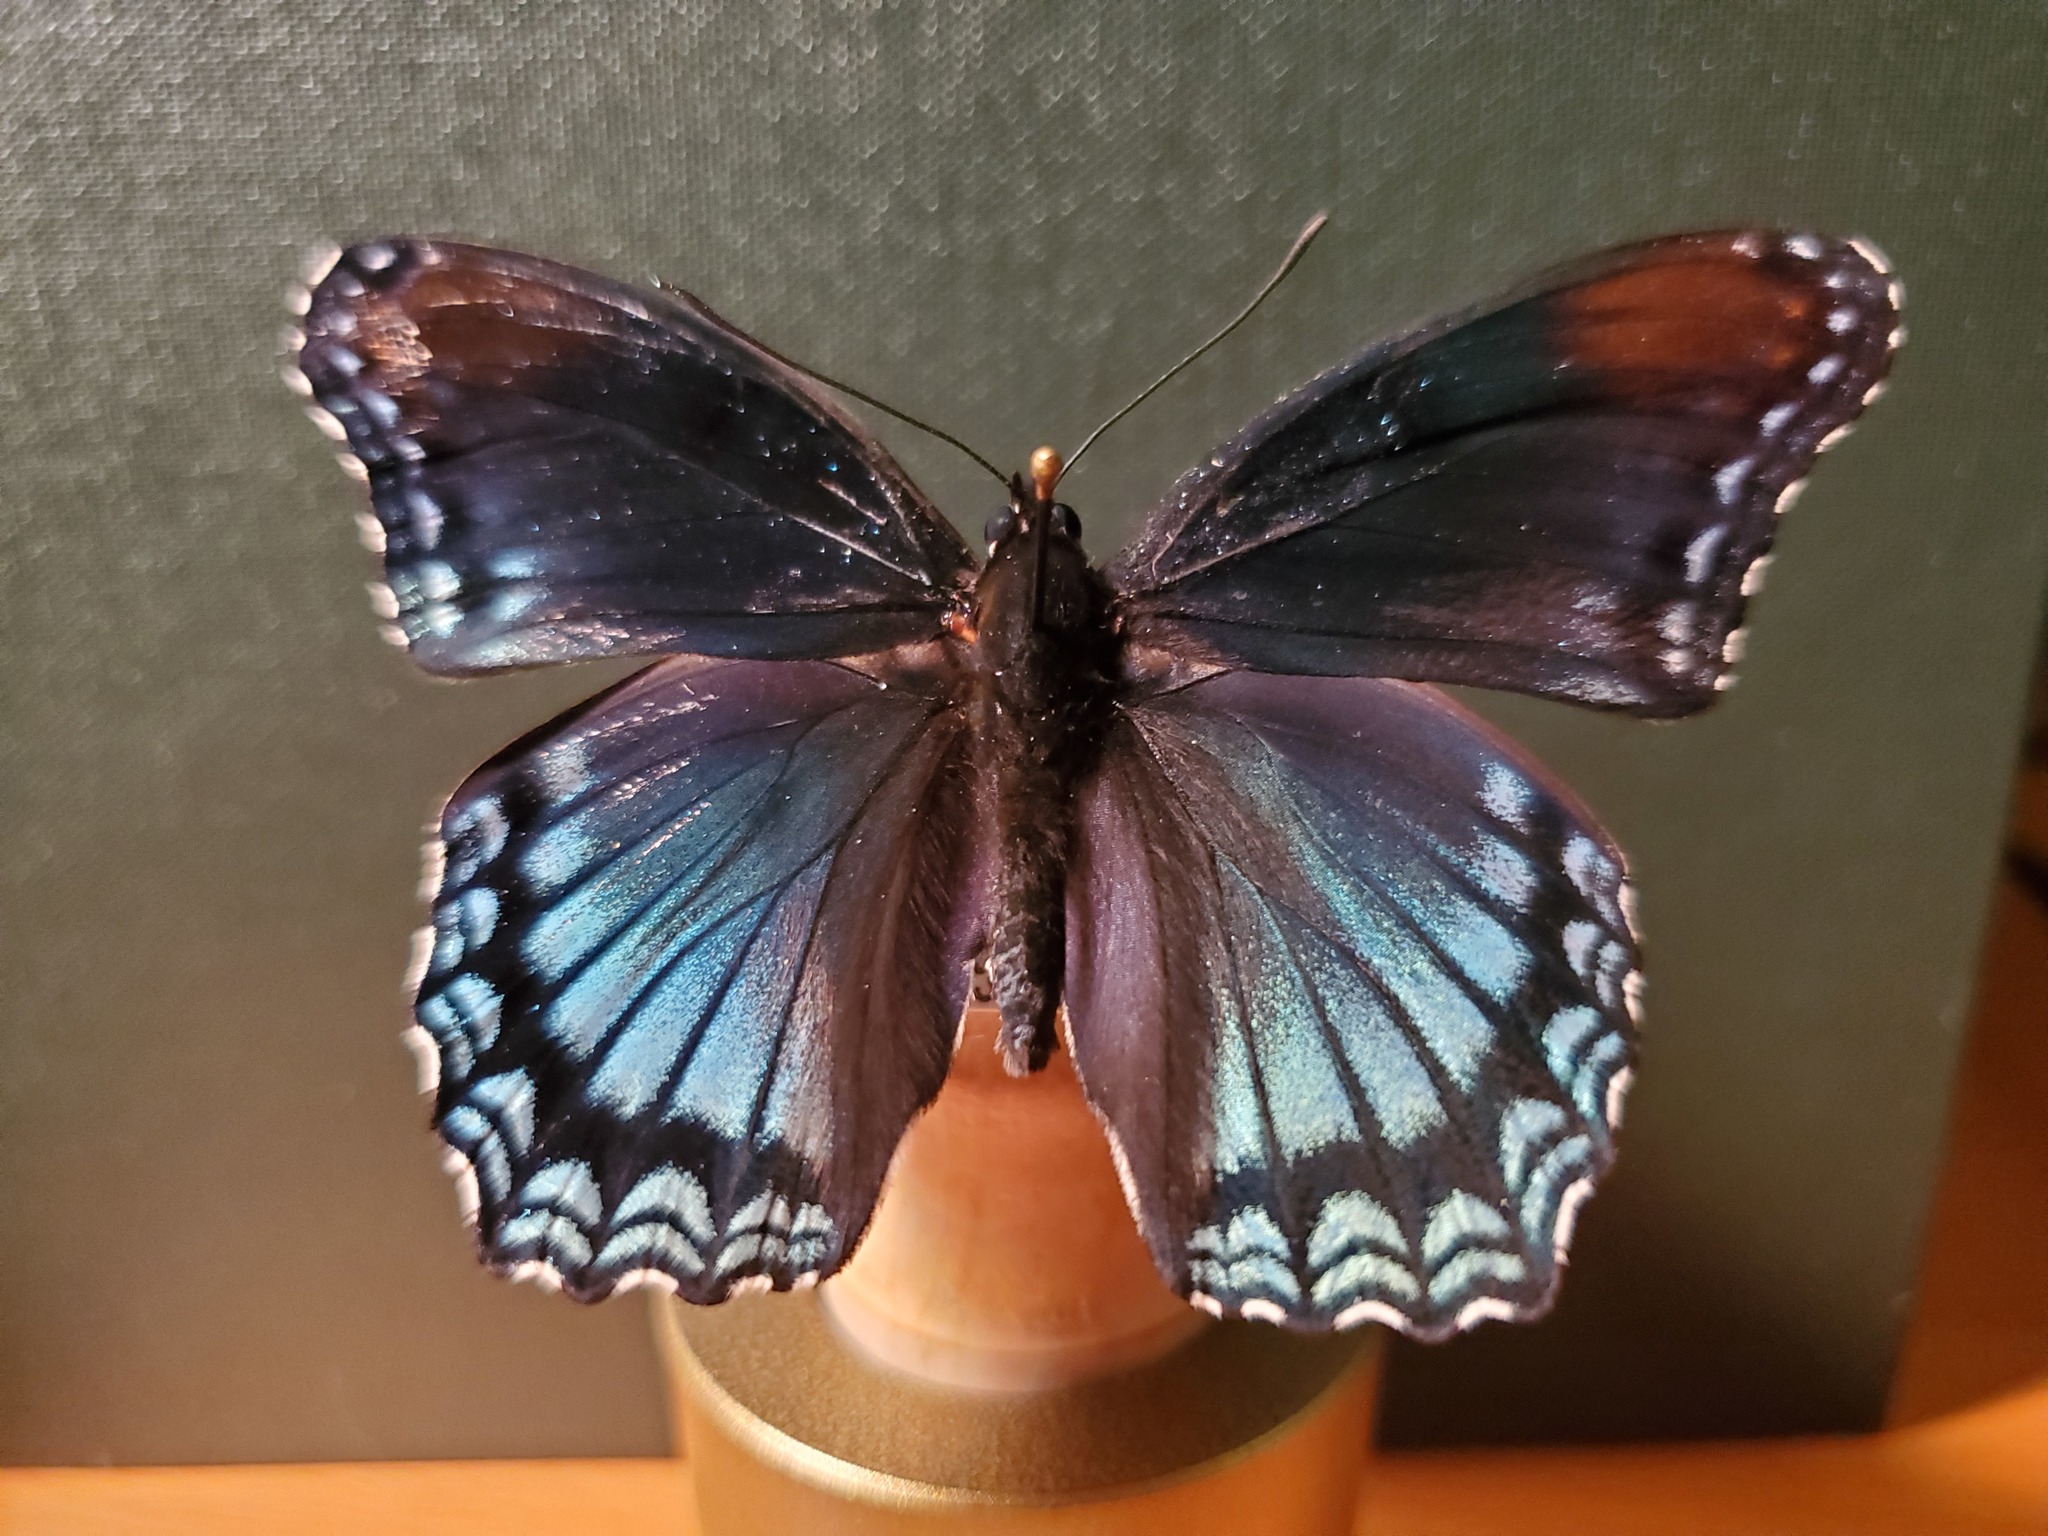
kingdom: Animalia
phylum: Arthropoda
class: Insecta
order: Lepidoptera
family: Nymphalidae
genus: Limenitis
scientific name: Limenitis astyanax
